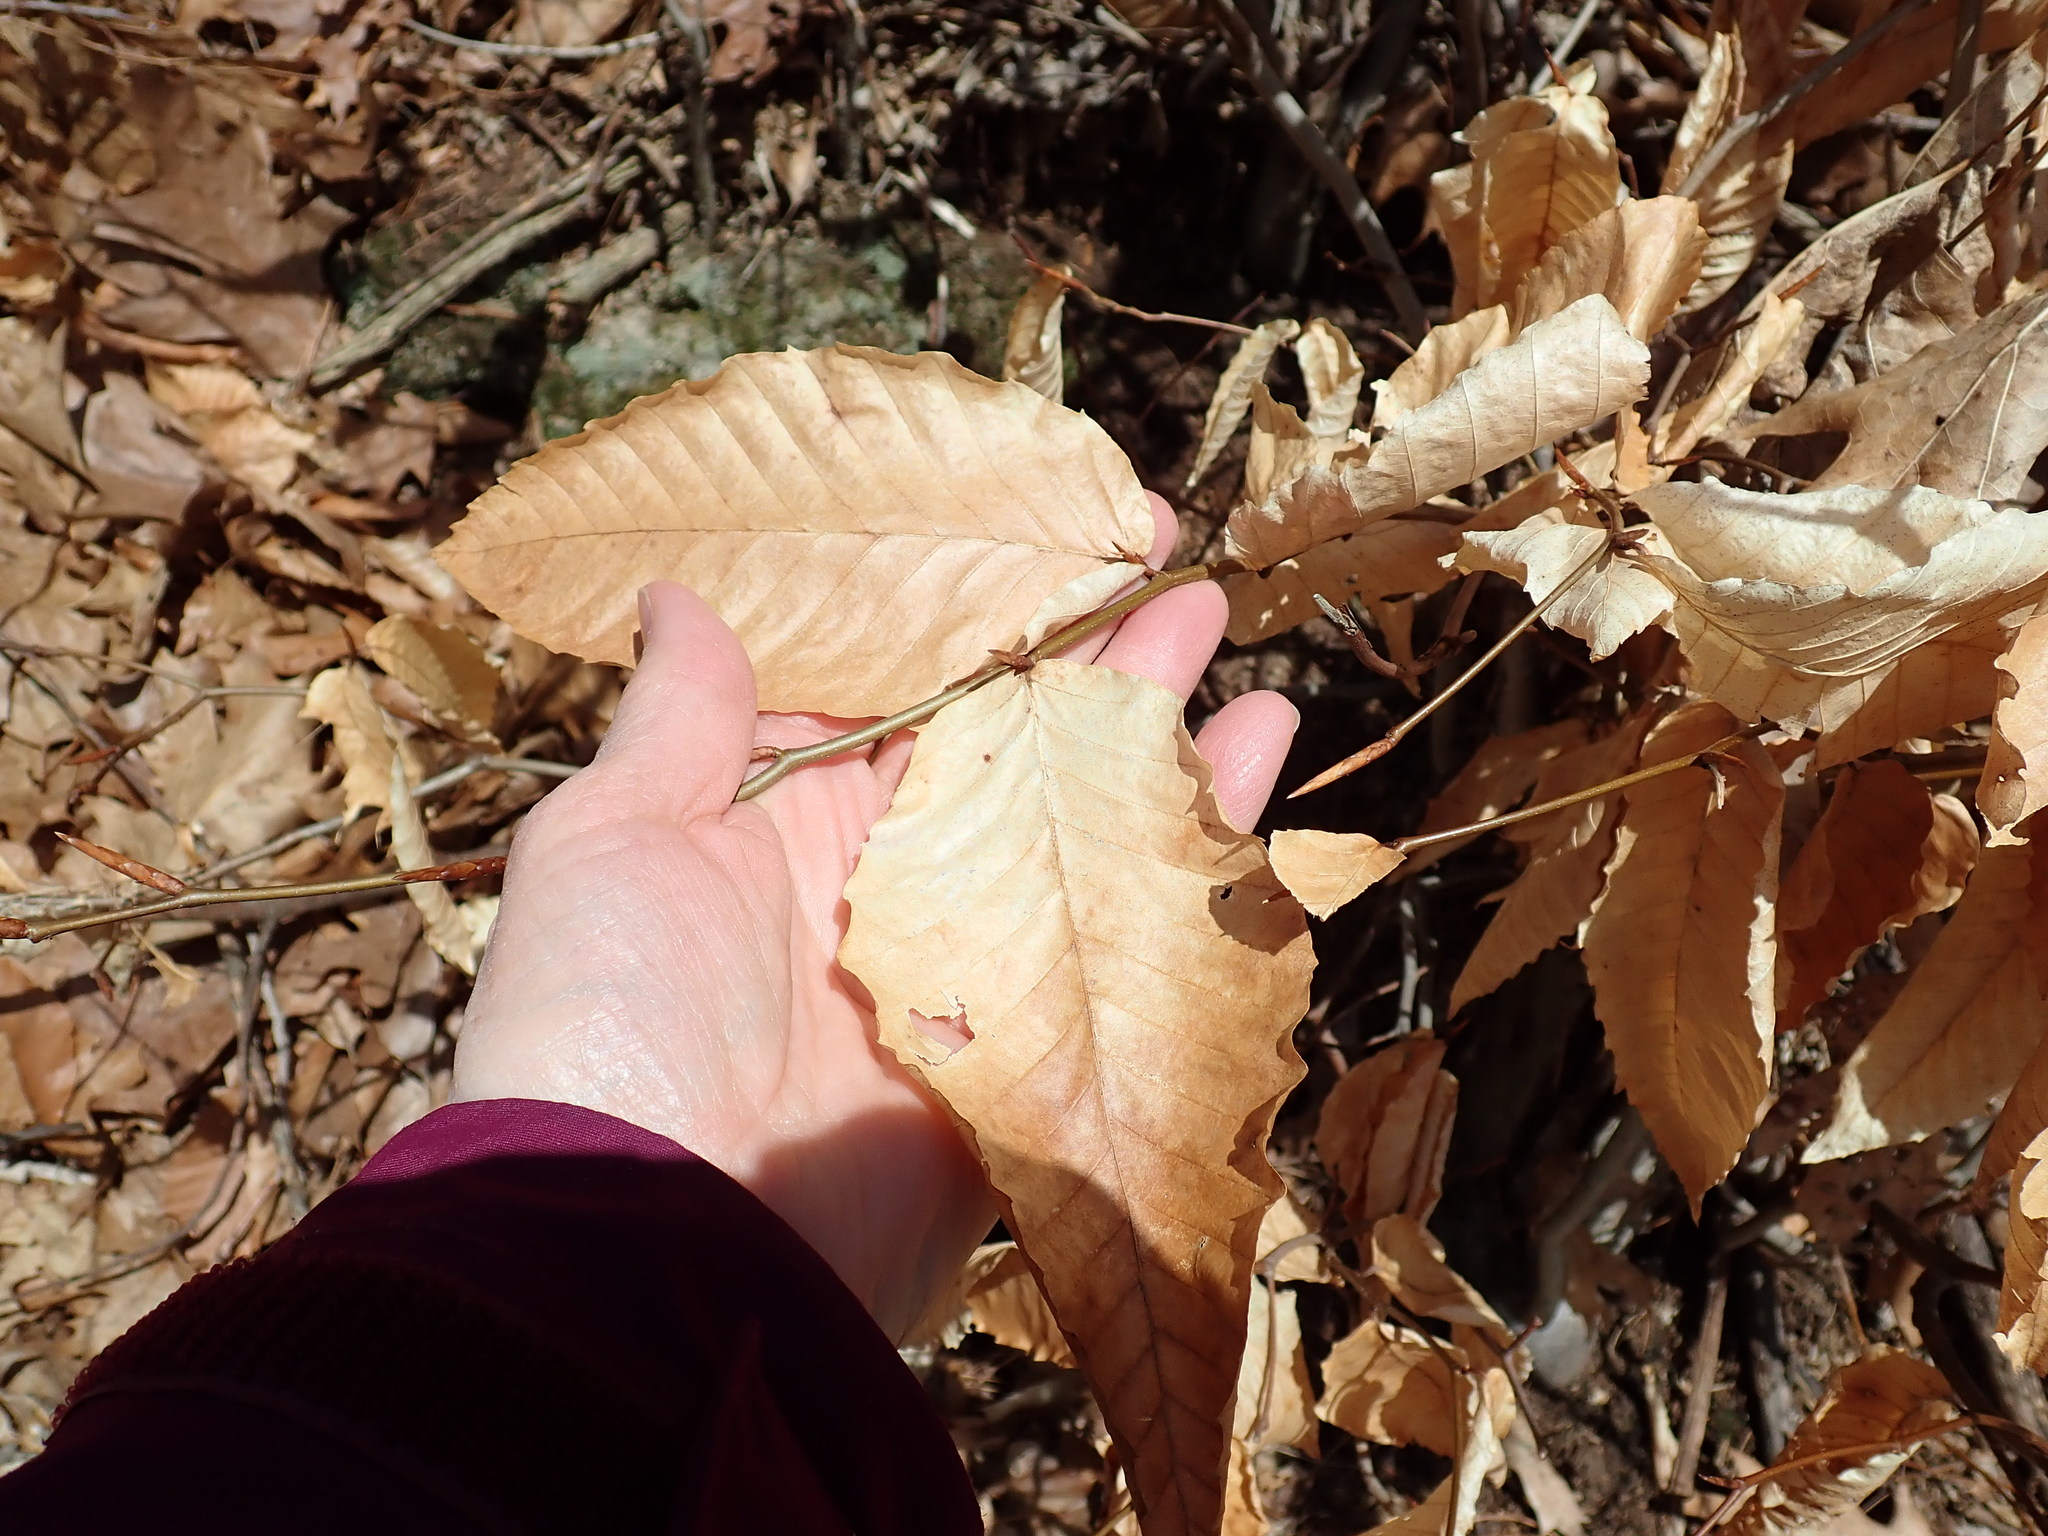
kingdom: Plantae
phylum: Tracheophyta
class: Magnoliopsida
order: Fagales
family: Fagaceae
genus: Fagus
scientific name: Fagus grandifolia
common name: American beech
